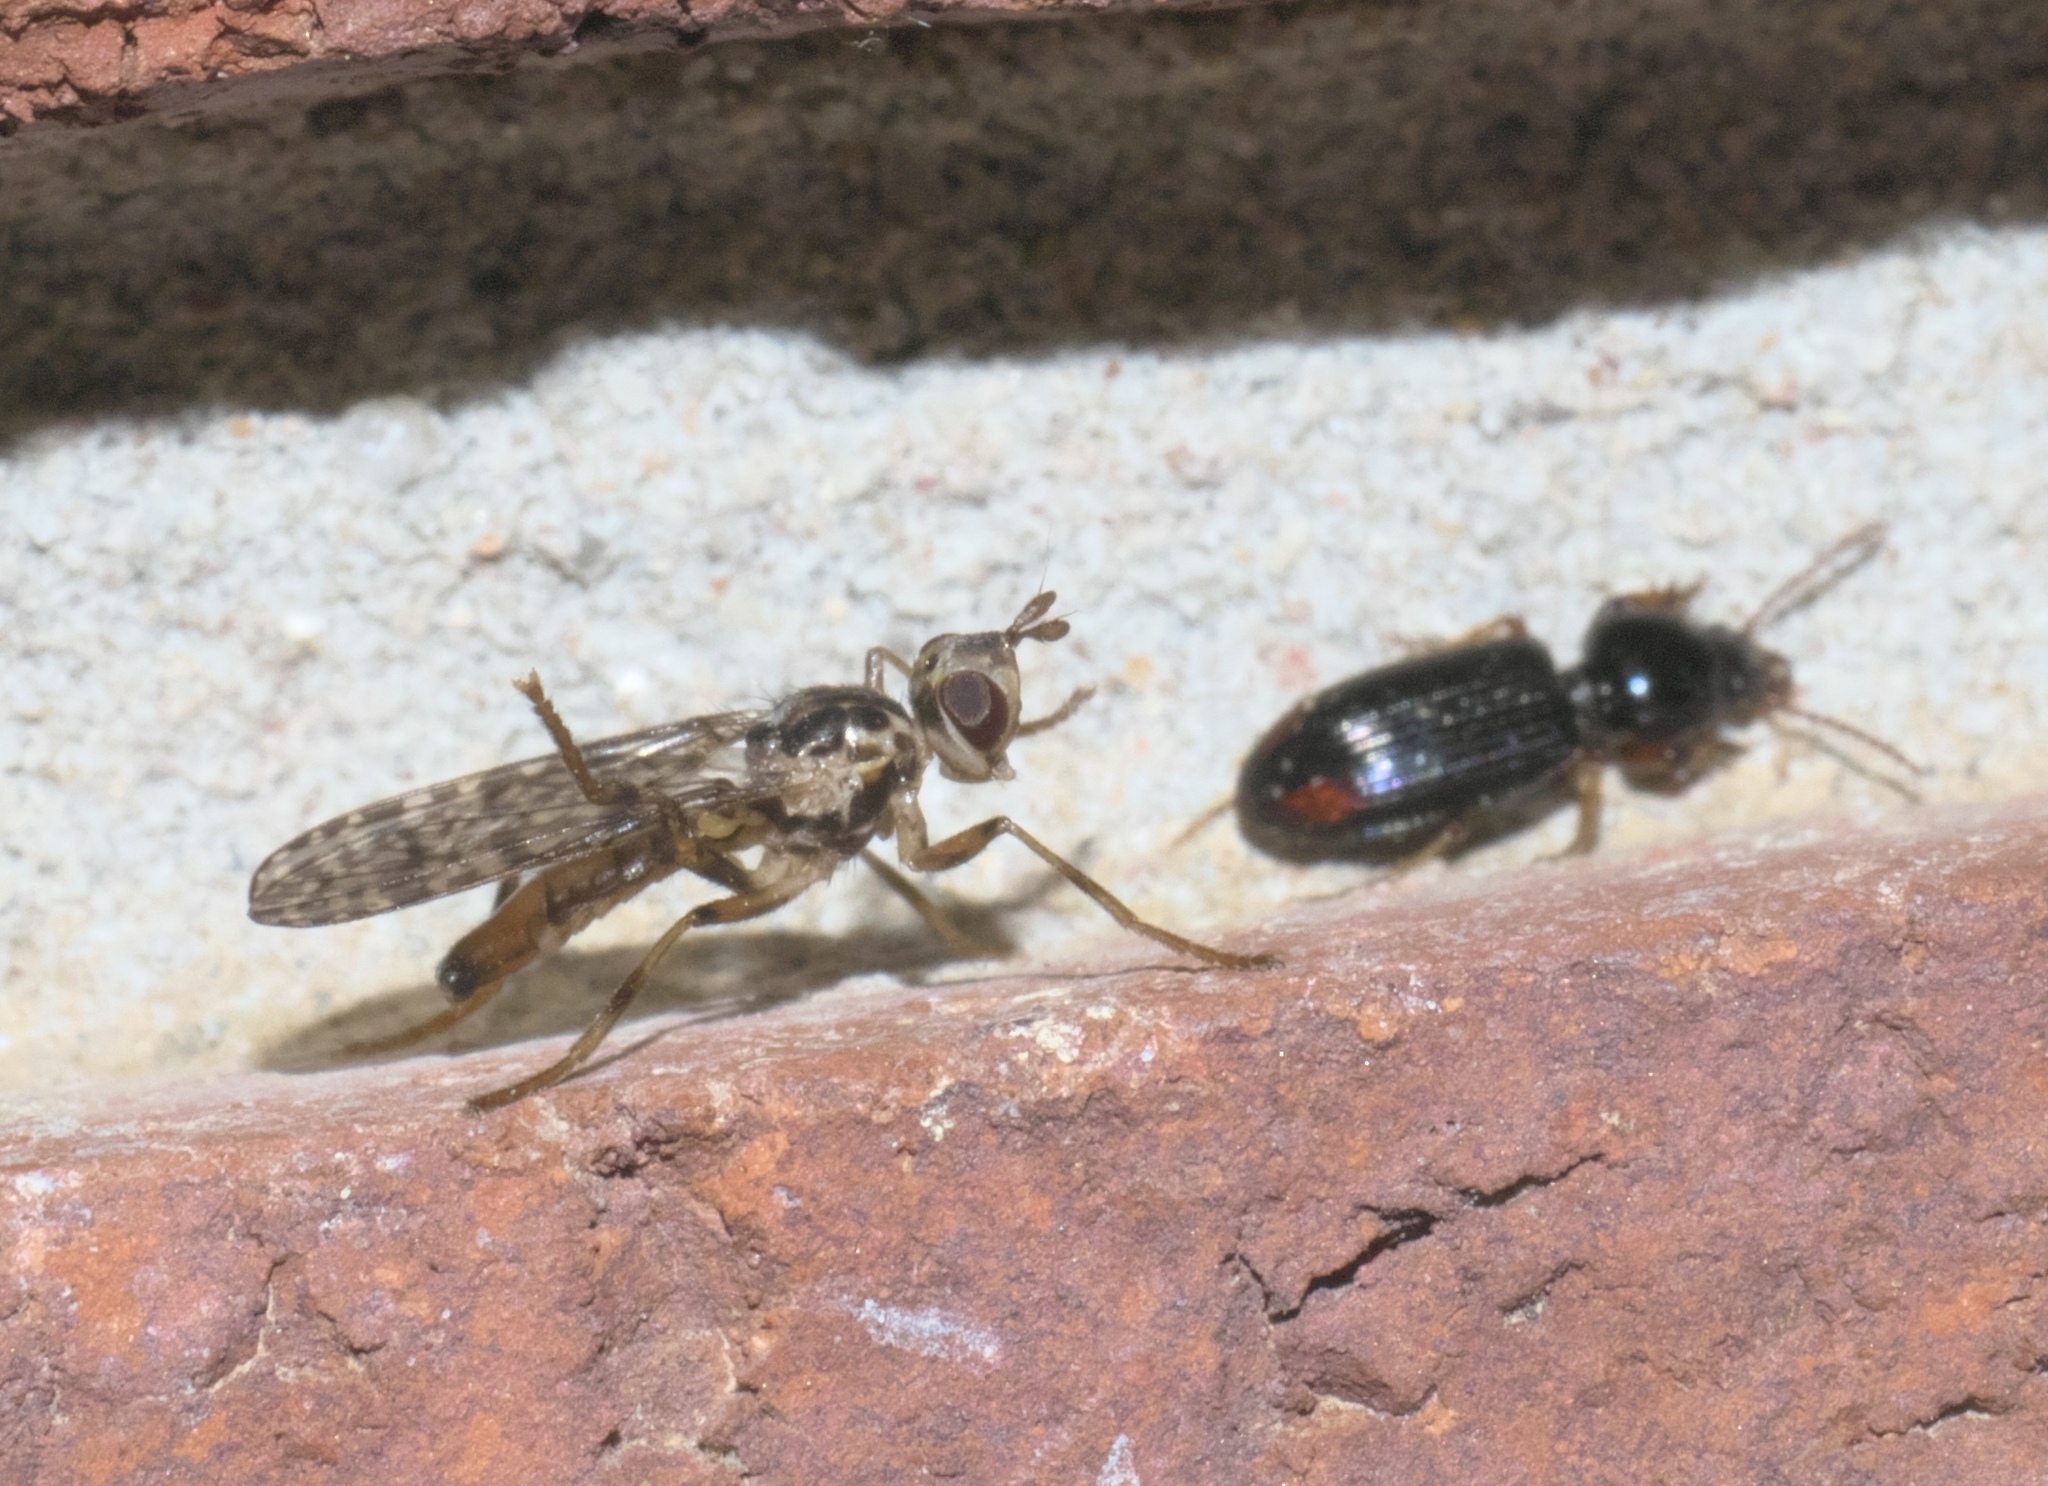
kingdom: Animalia
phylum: Arthropoda
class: Insecta
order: Diptera
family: Pyrgotidae
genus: Boreothrinax
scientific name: Boreothrinax
